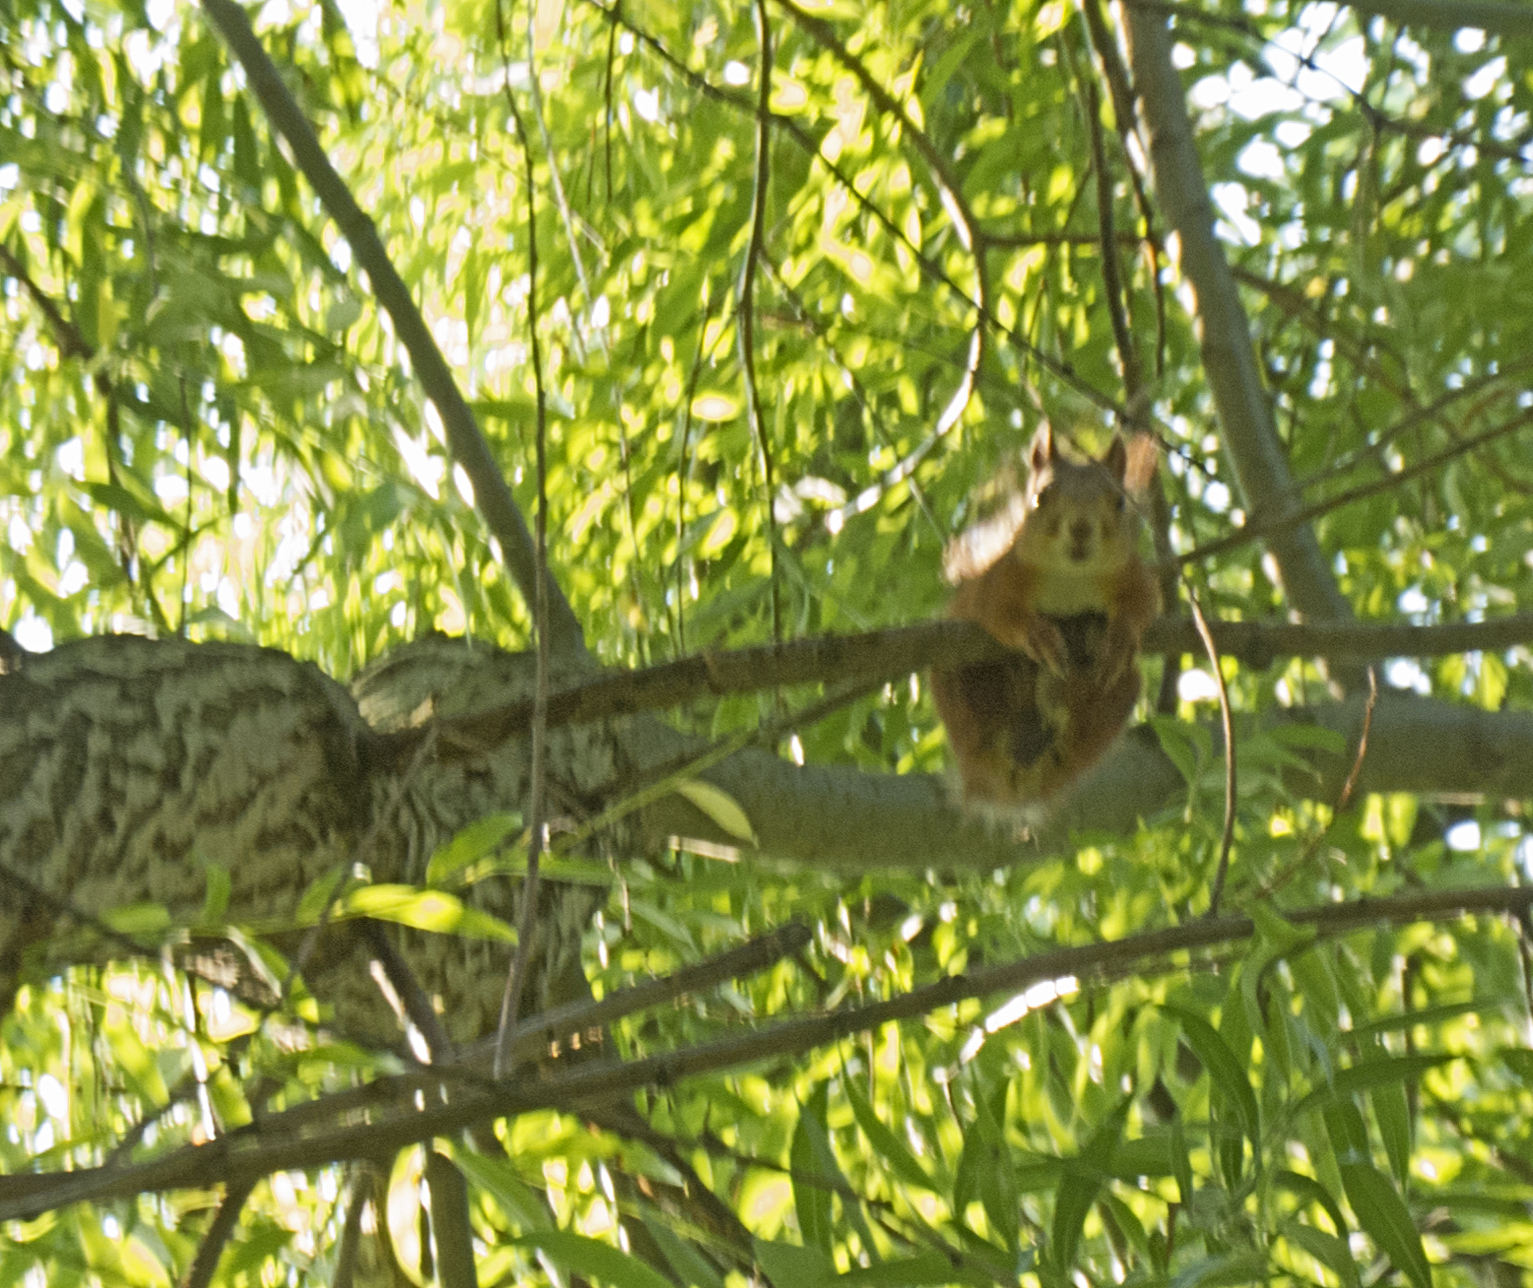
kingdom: Animalia
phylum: Chordata
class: Mammalia
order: Rodentia
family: Sciuridae
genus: Sciurus
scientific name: Sciurus vulgaris
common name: Eurasian red squirrel
